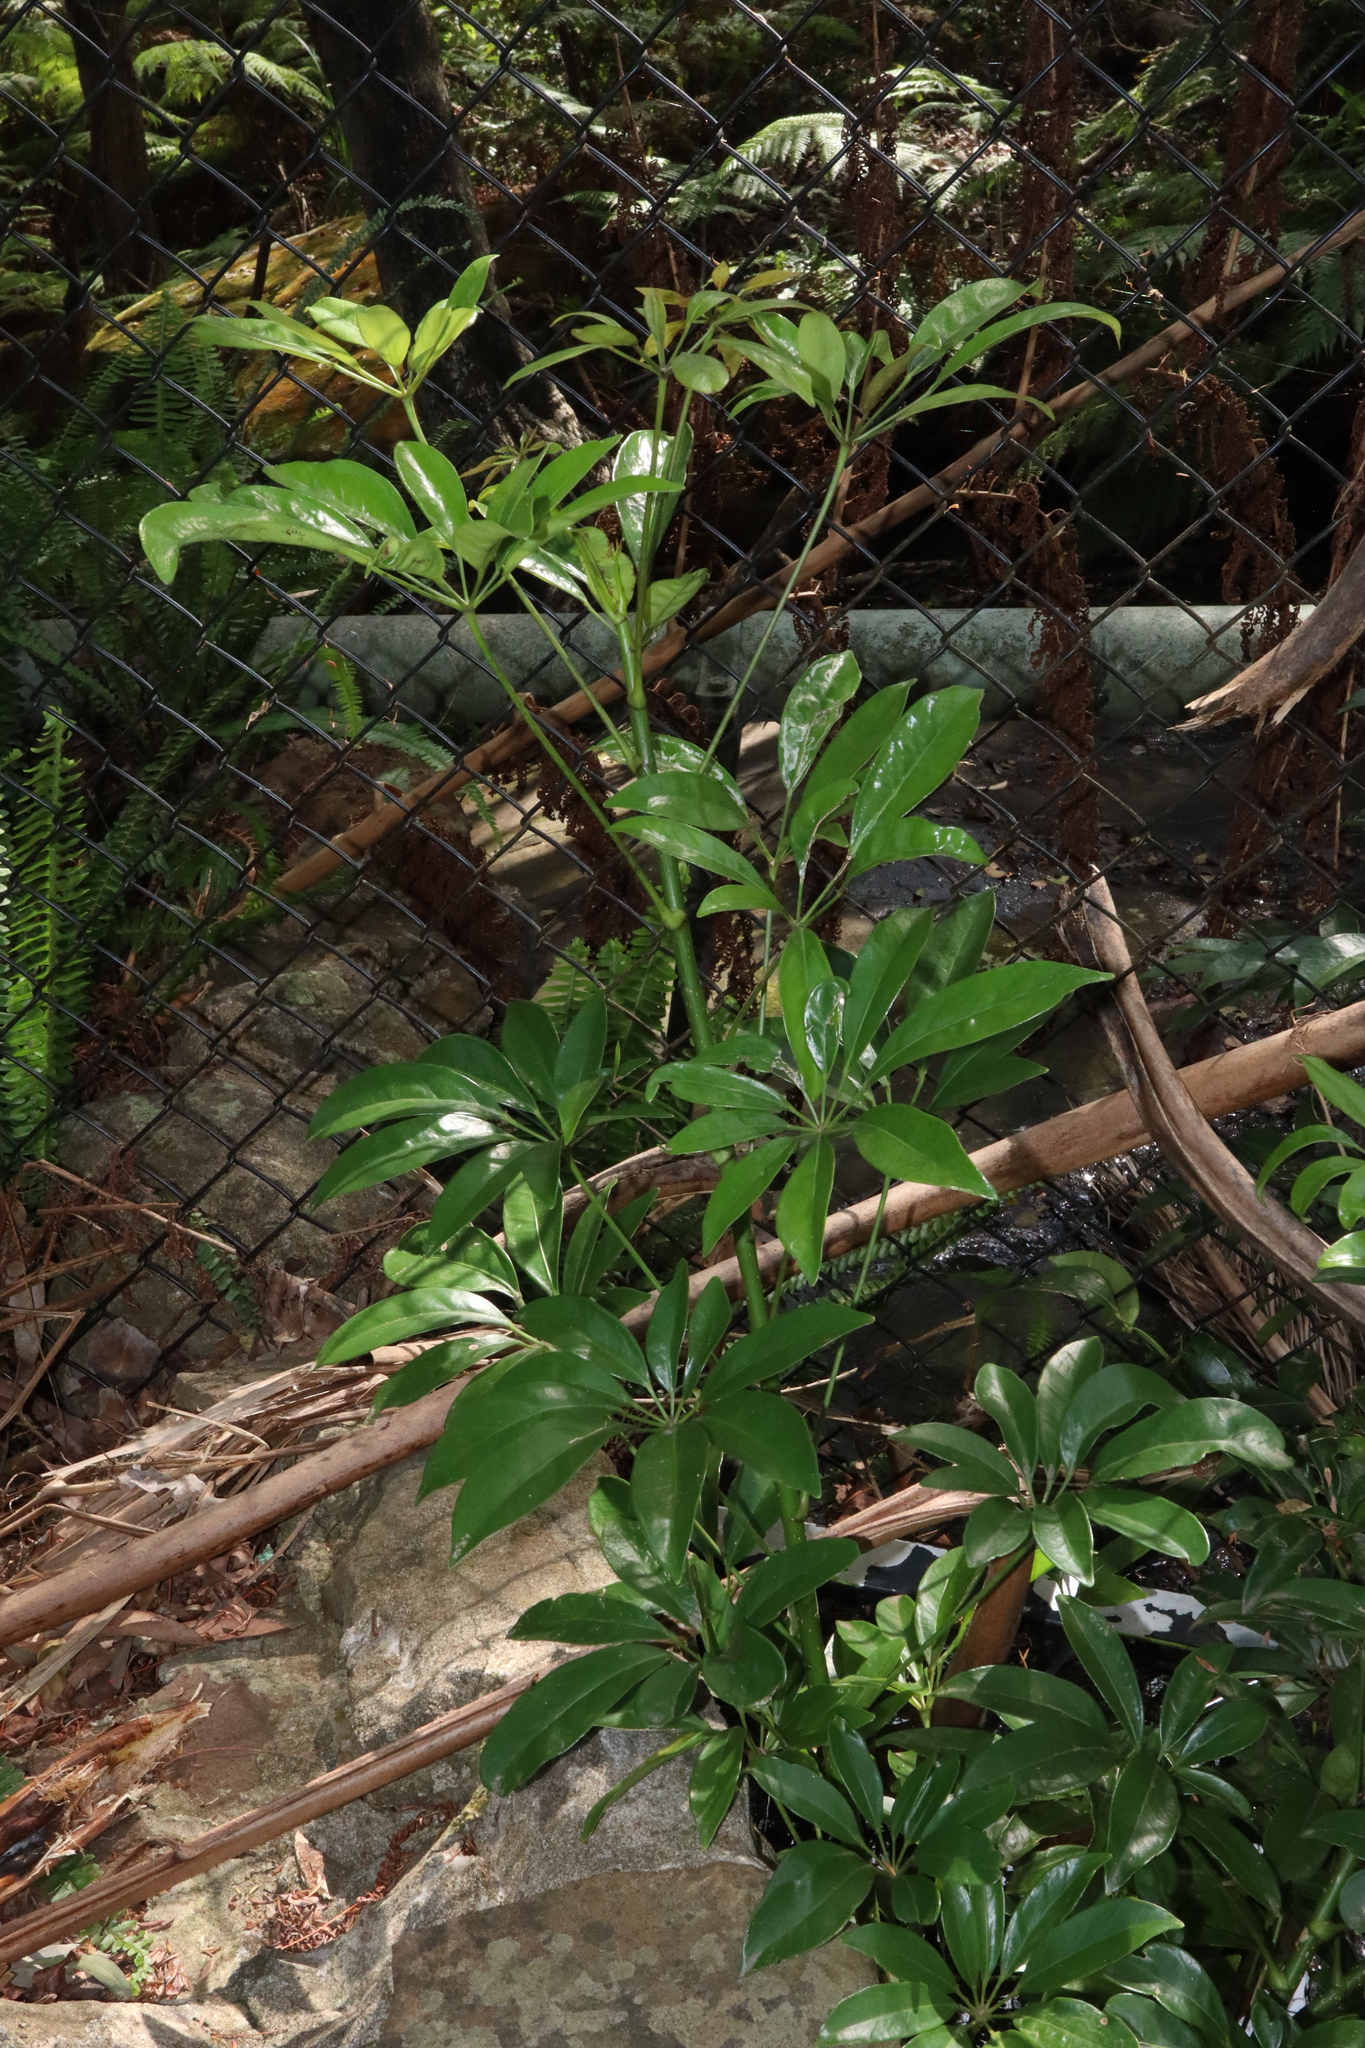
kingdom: Plantae
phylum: Tracheophyta
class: Magnoliopsida
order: Apiales
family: Araliaceae
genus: Heptapleurum
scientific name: Heptapleurum arboricola
